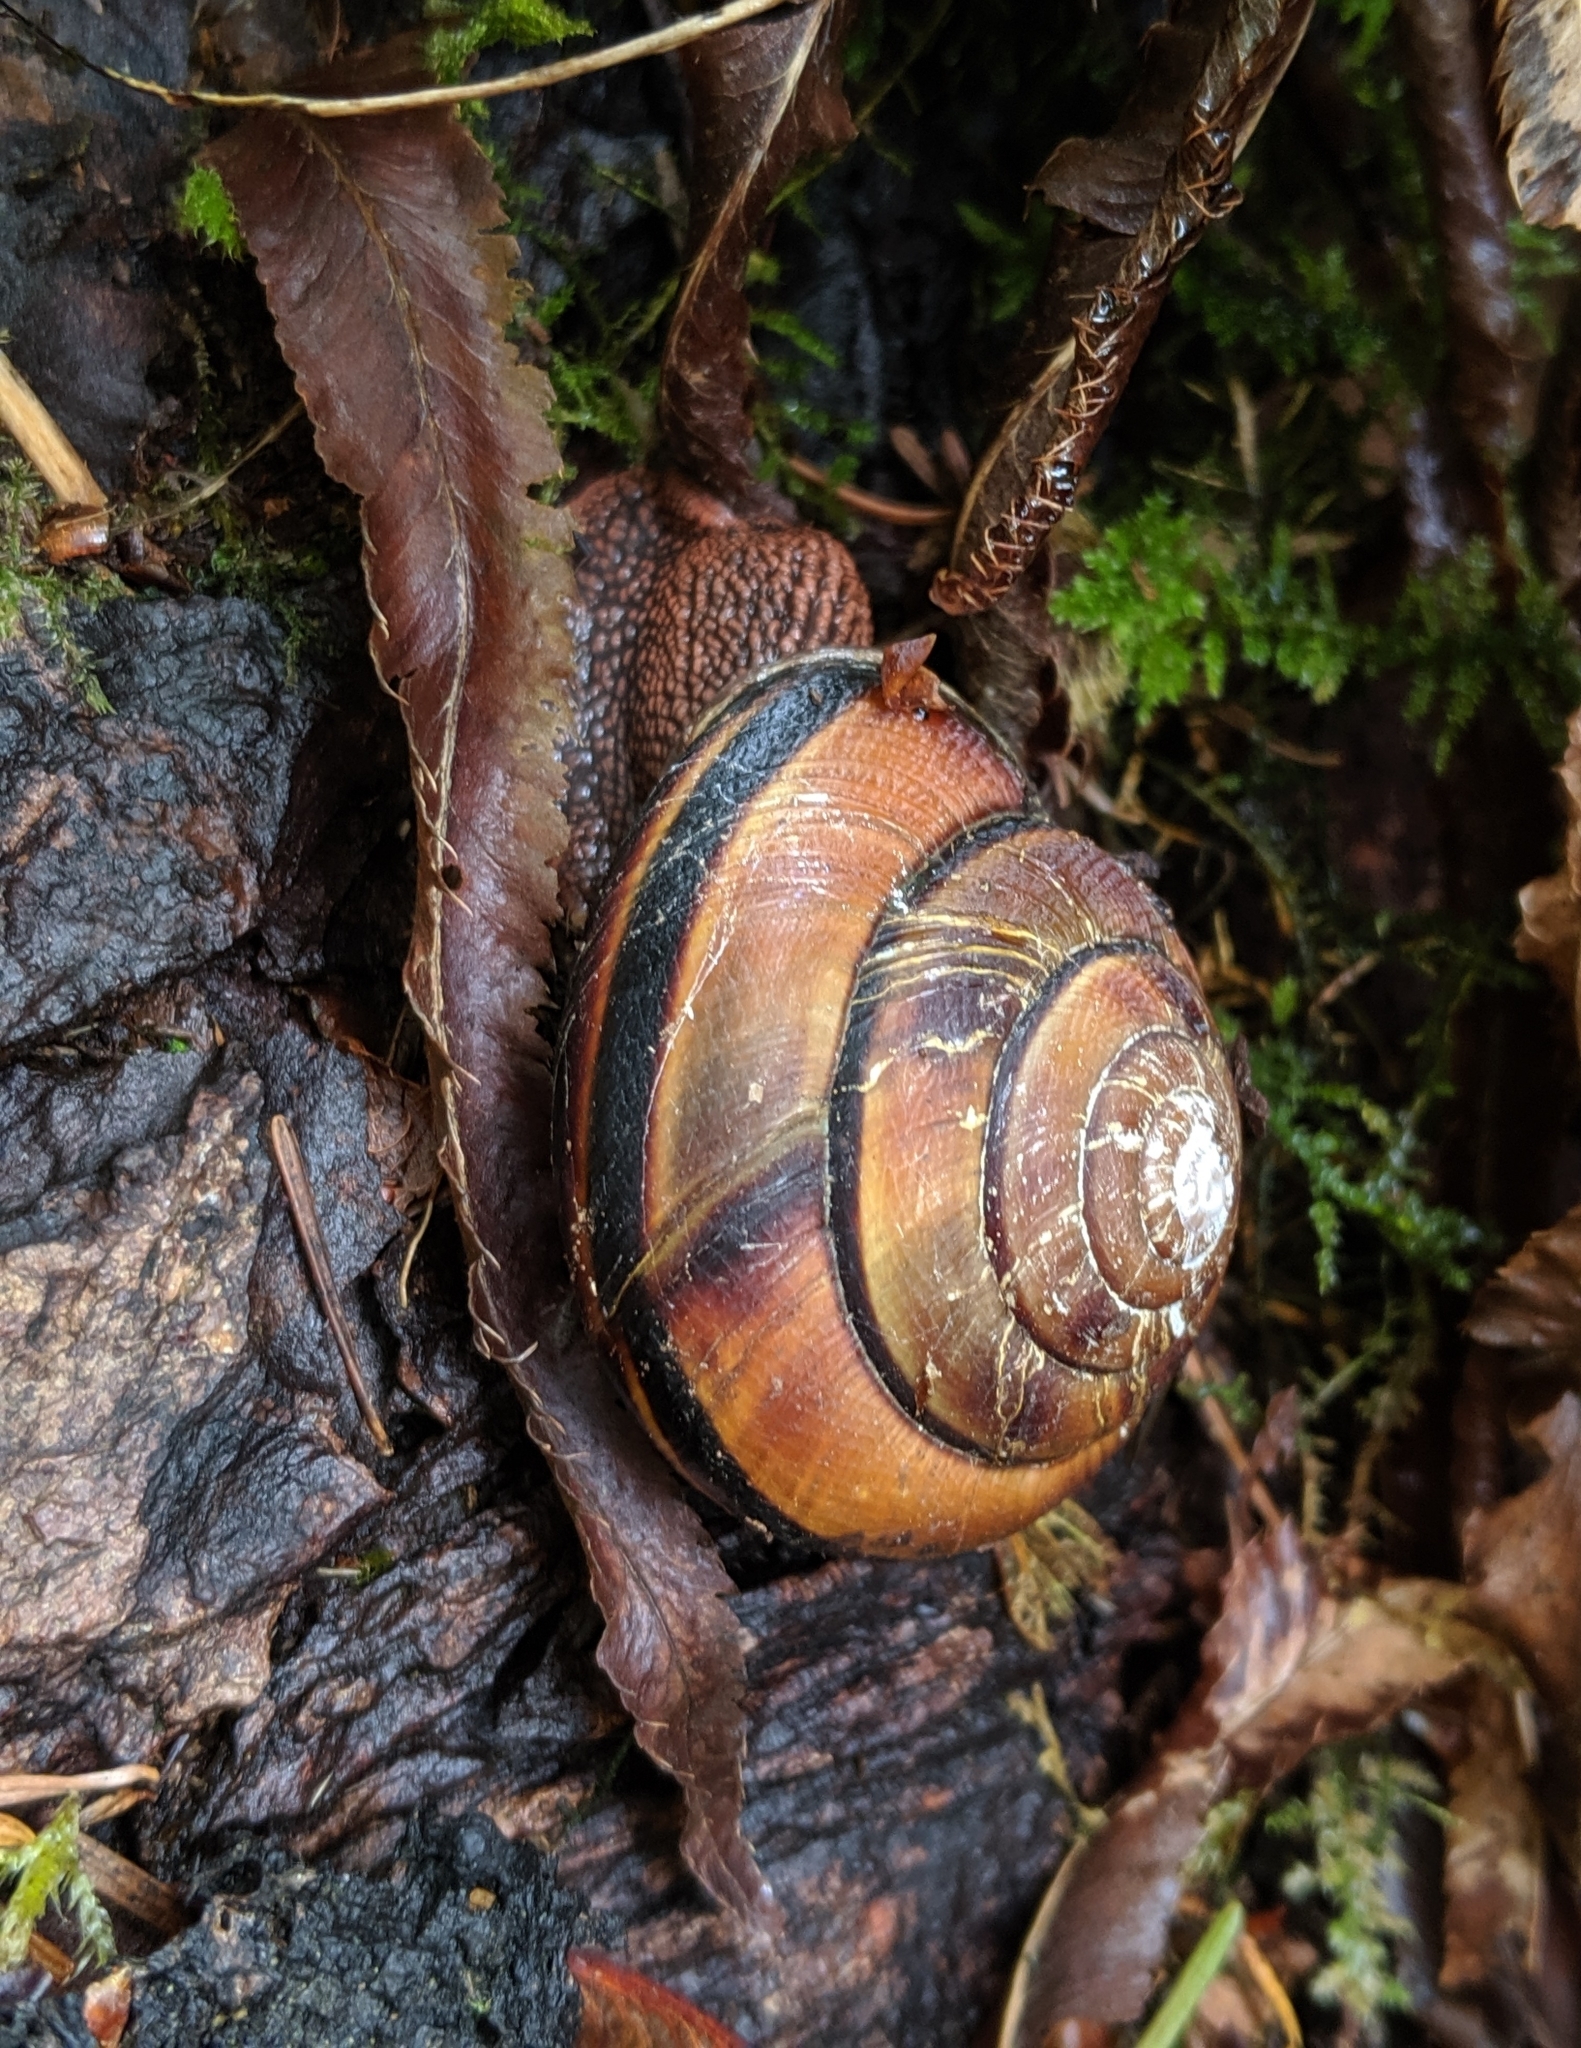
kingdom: Animalia
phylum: Mollusca
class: Gastropoda
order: Stylommatophora
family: Xanthonychidae
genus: Monadenia
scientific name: Monadenia fidelis
